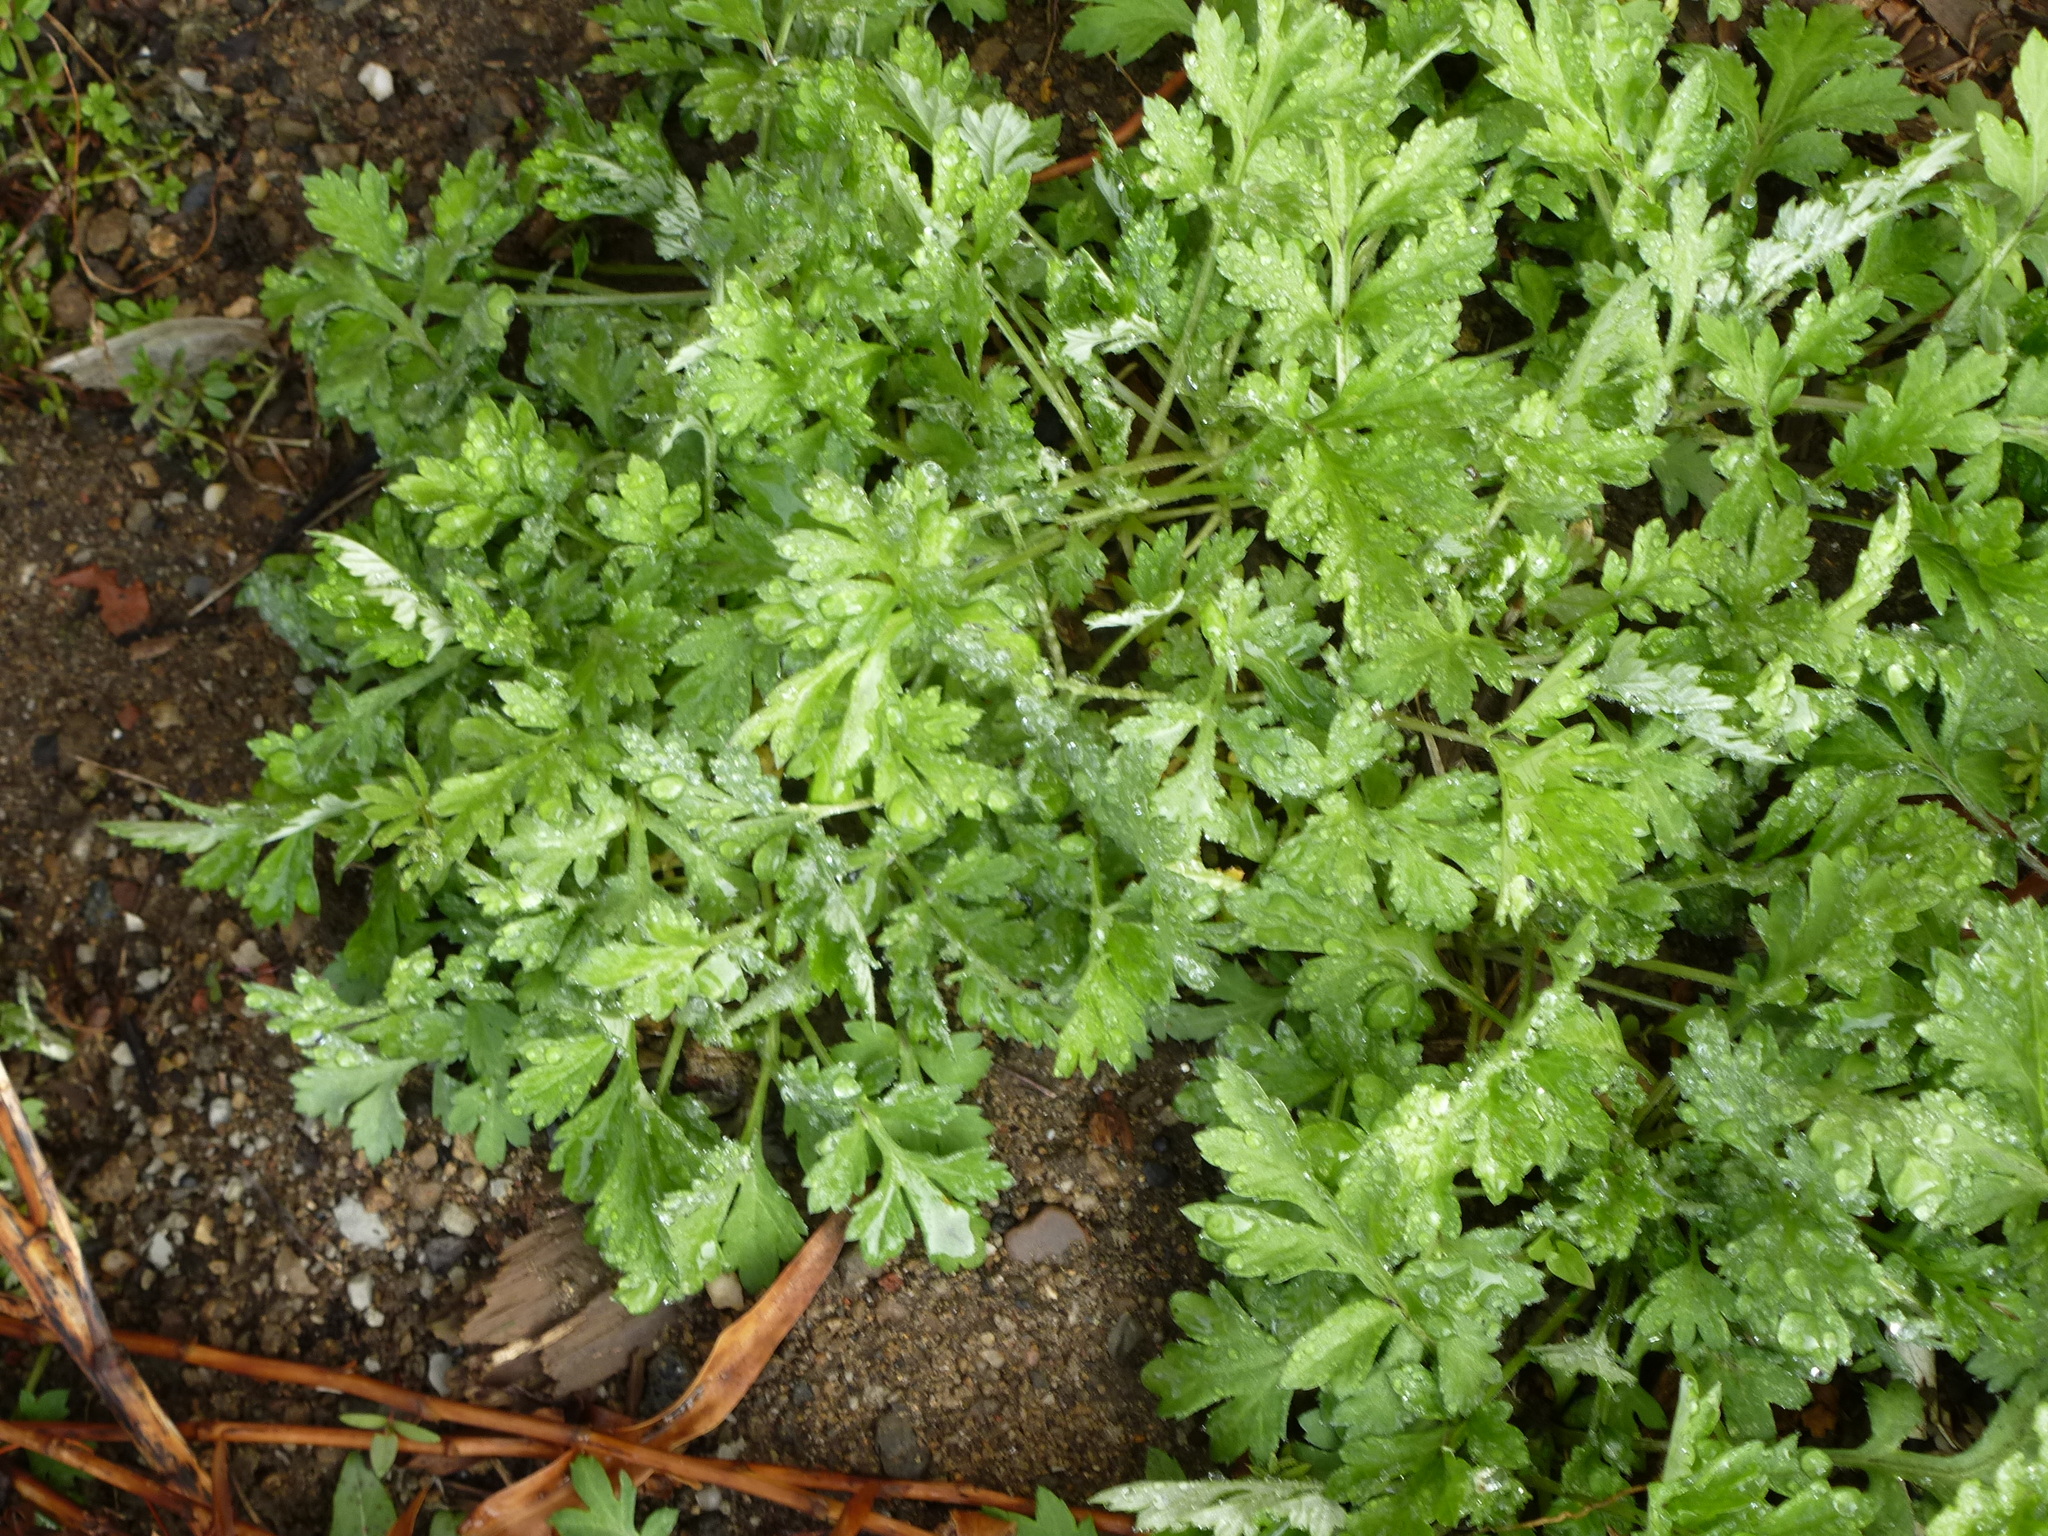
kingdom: Plantae
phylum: Tracheophyta
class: Magnoliopsida
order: Asterales
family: Asteraceae
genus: Artemisia
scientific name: Artemisia vulgaris
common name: Mugwort
